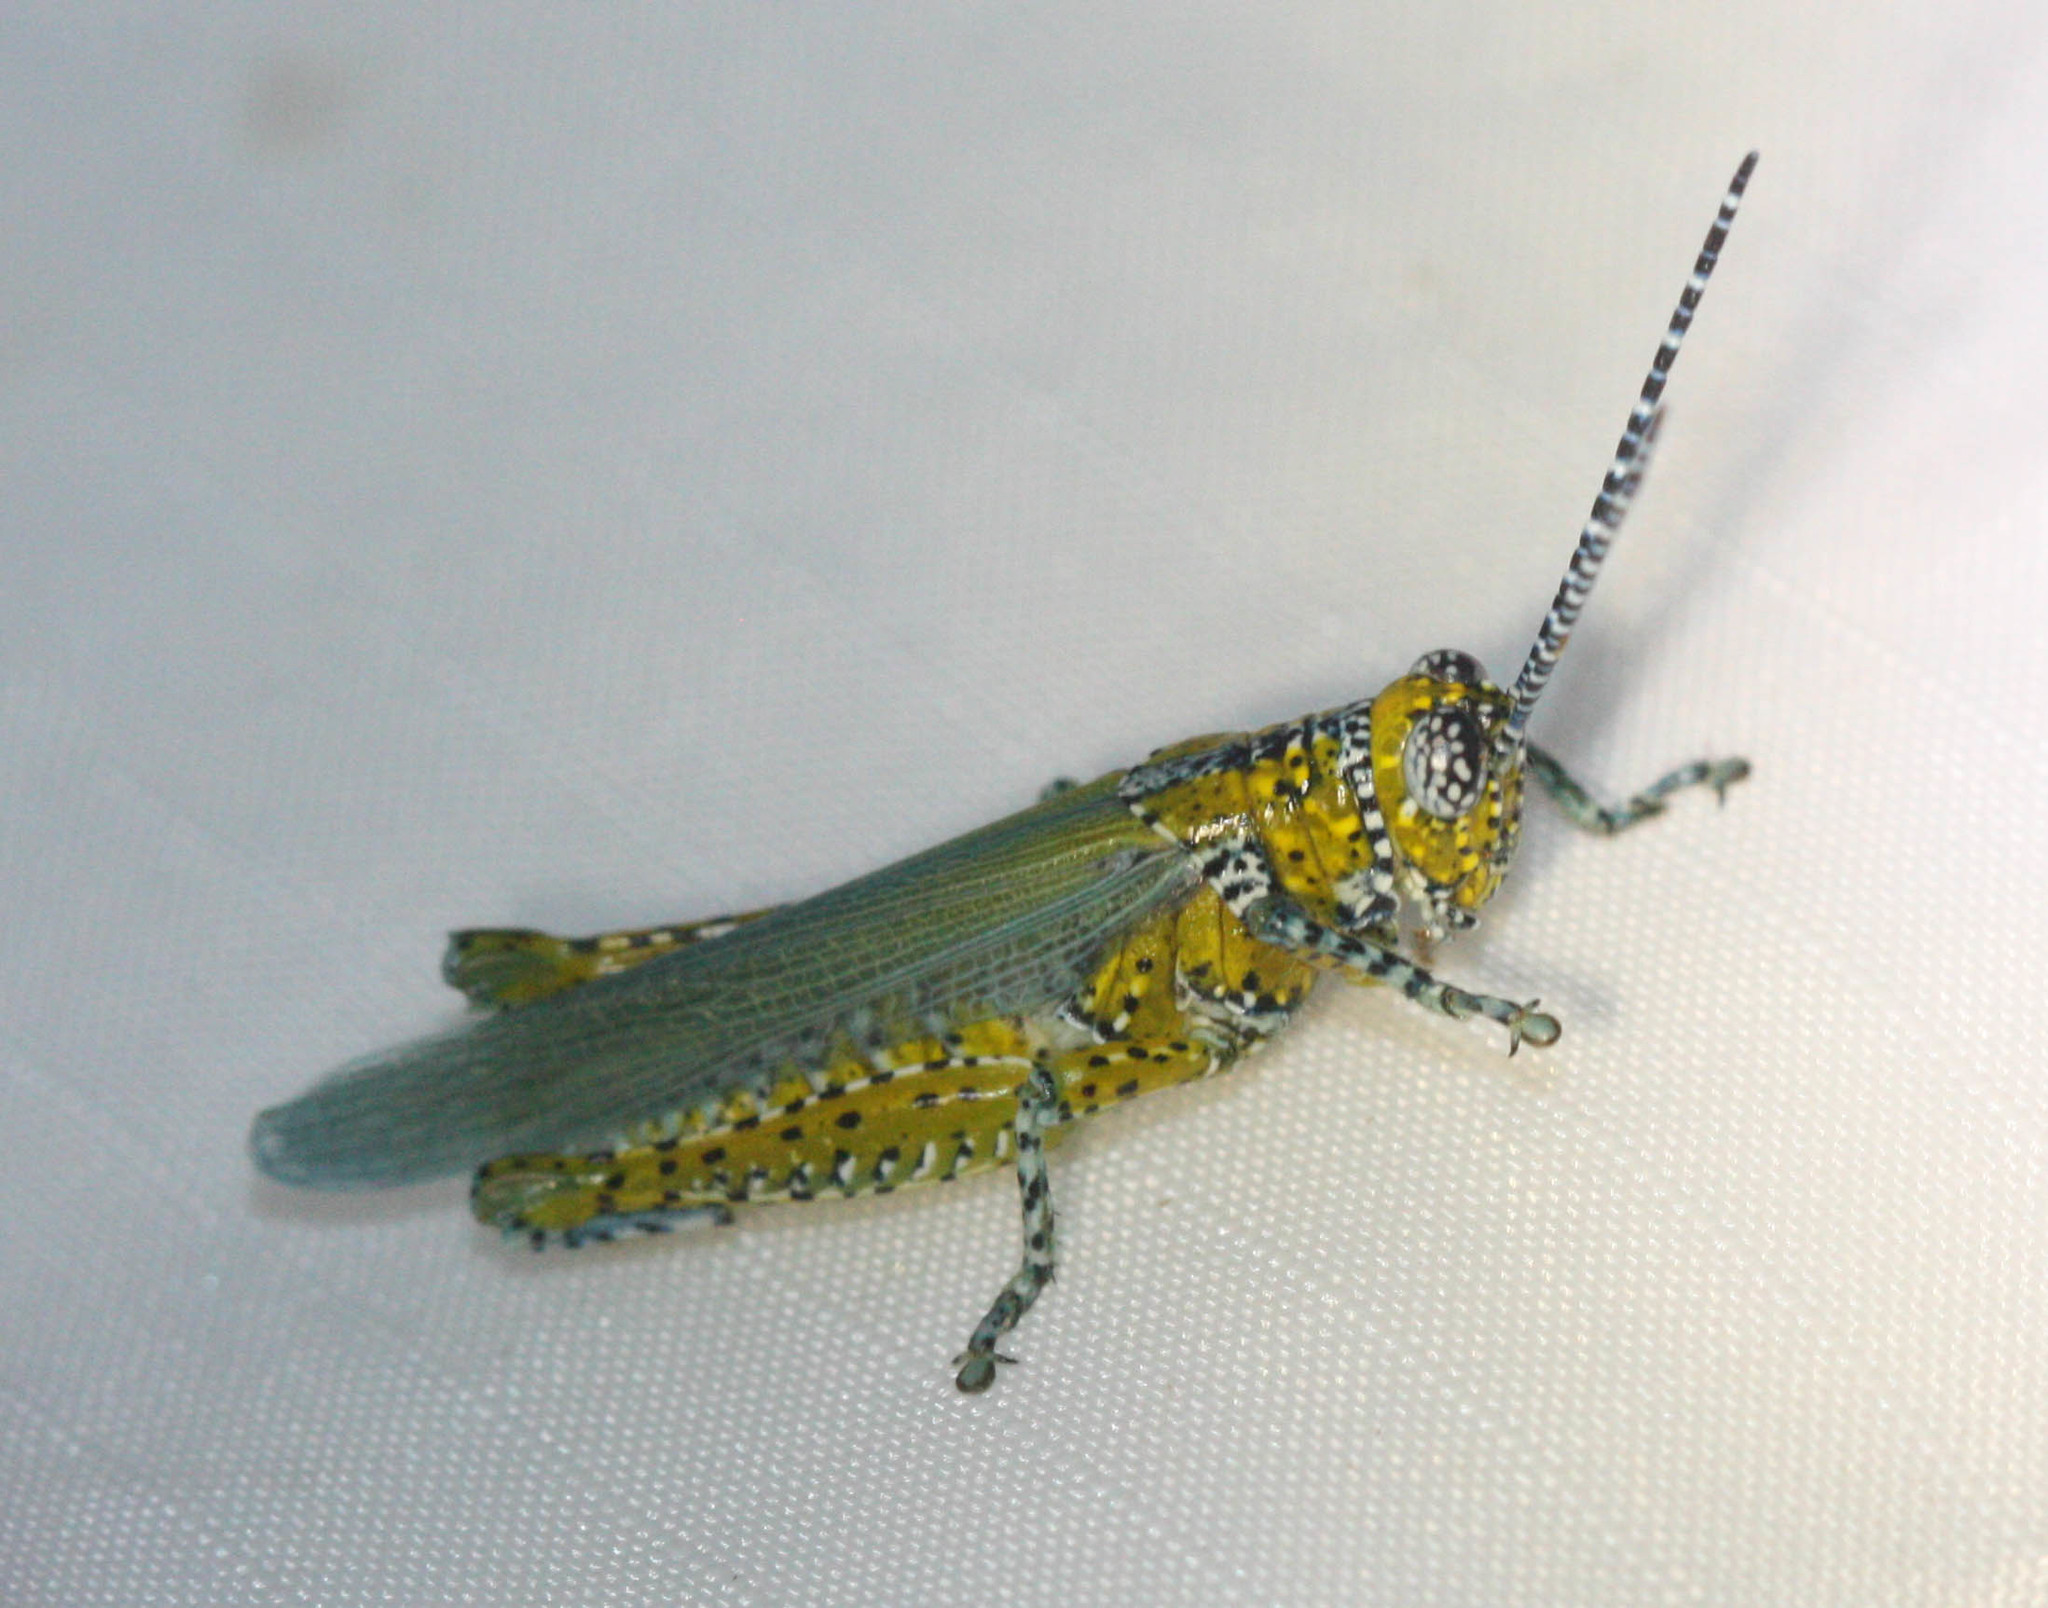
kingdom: Animalia
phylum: Arthropoda
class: Insecta
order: Orthoptera
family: Acrididae
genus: Poecilotettix
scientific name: Poecilotettix pantherinus
